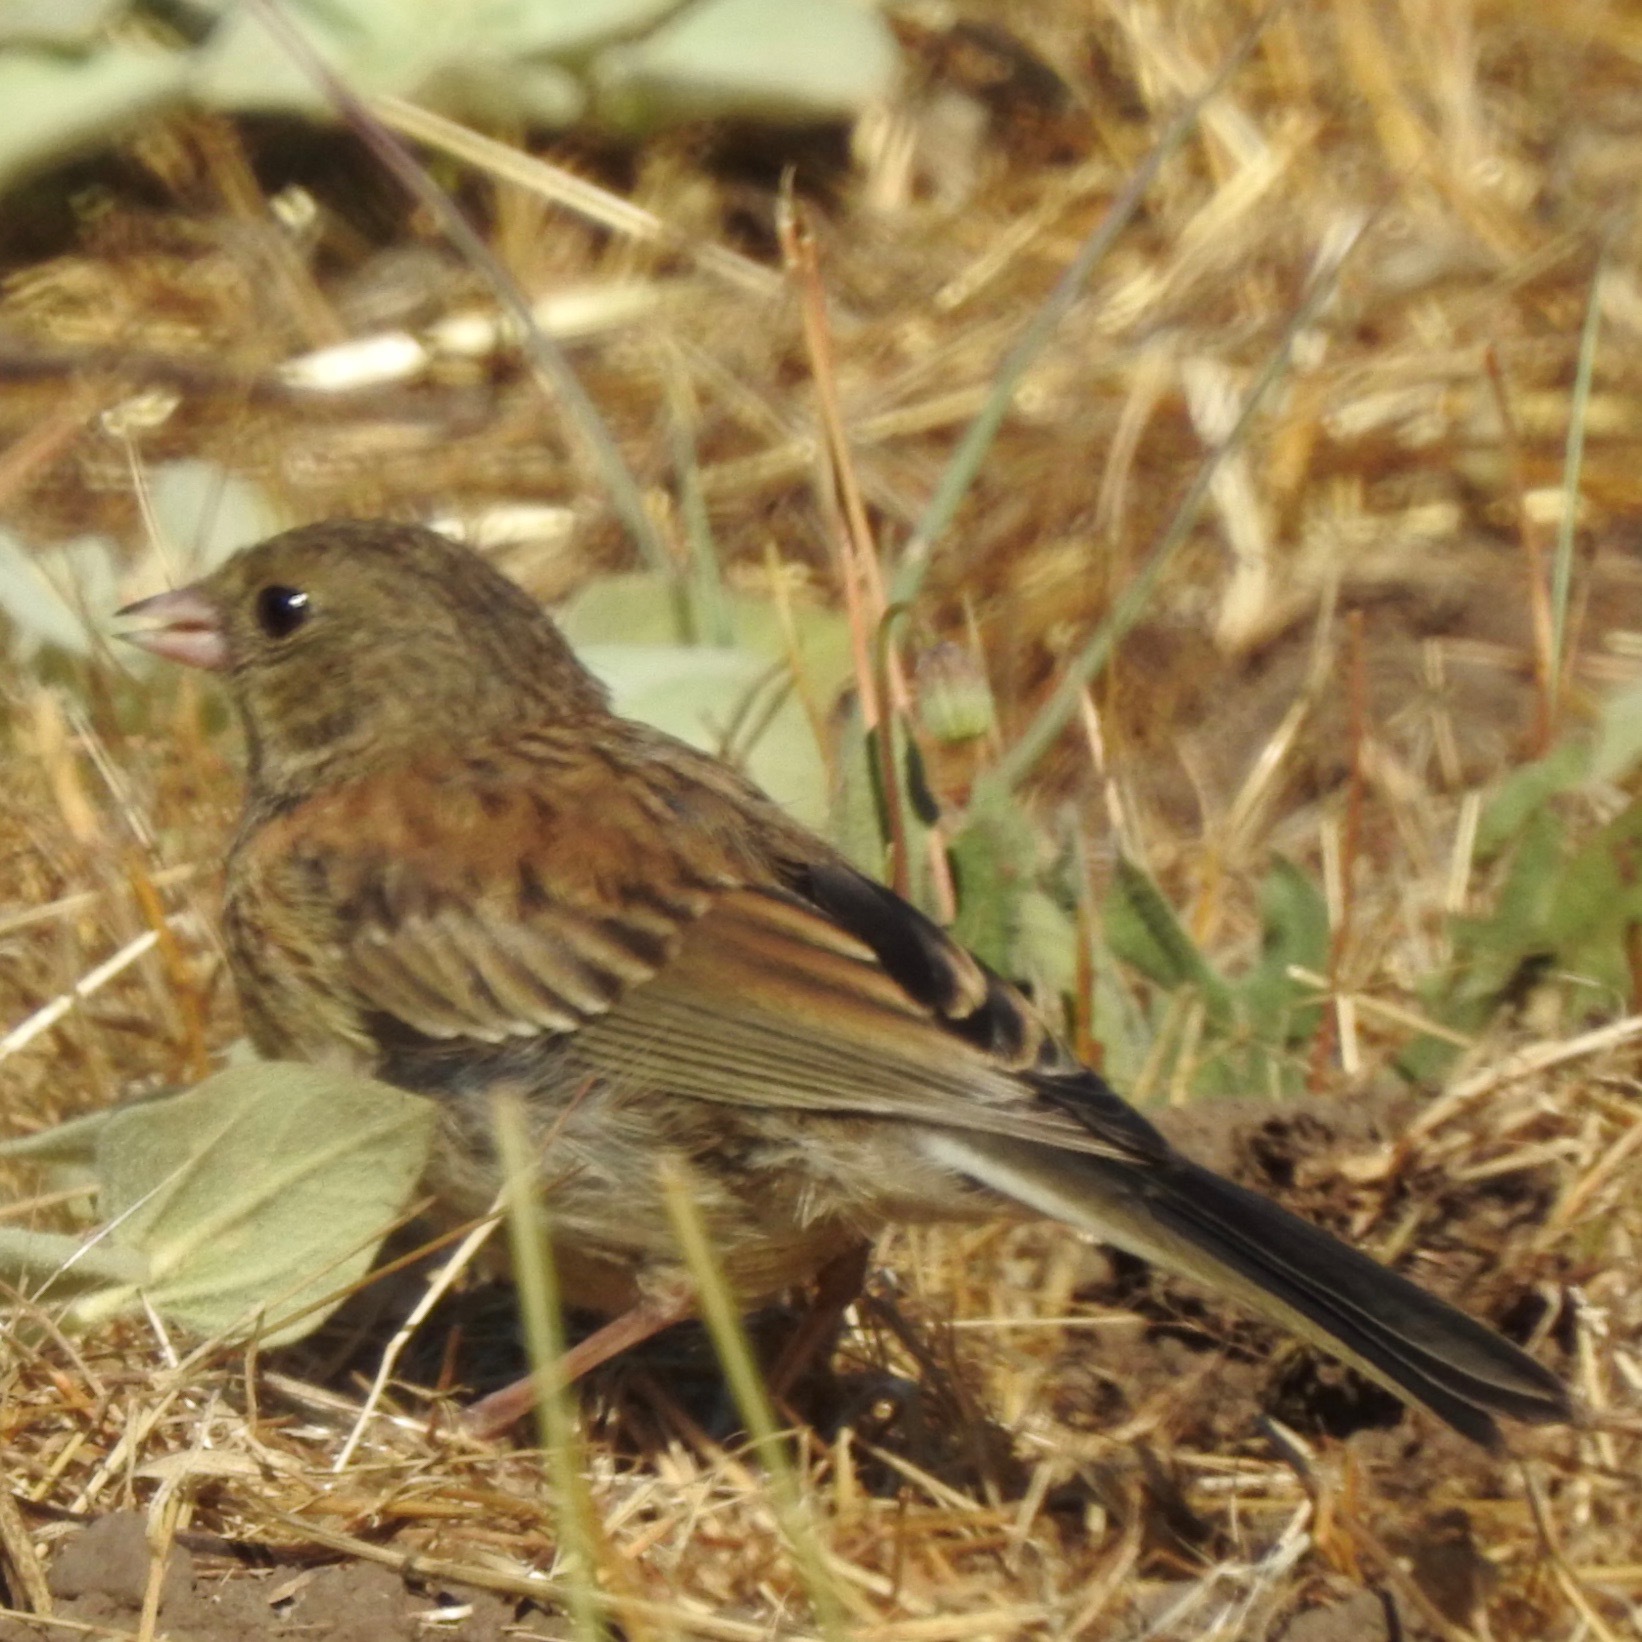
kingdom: Animalia
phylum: Chordata
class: Aves
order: Passeriformes
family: Passerellidae
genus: Junco
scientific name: Junco hyemalis
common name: Dark-eyed junco
